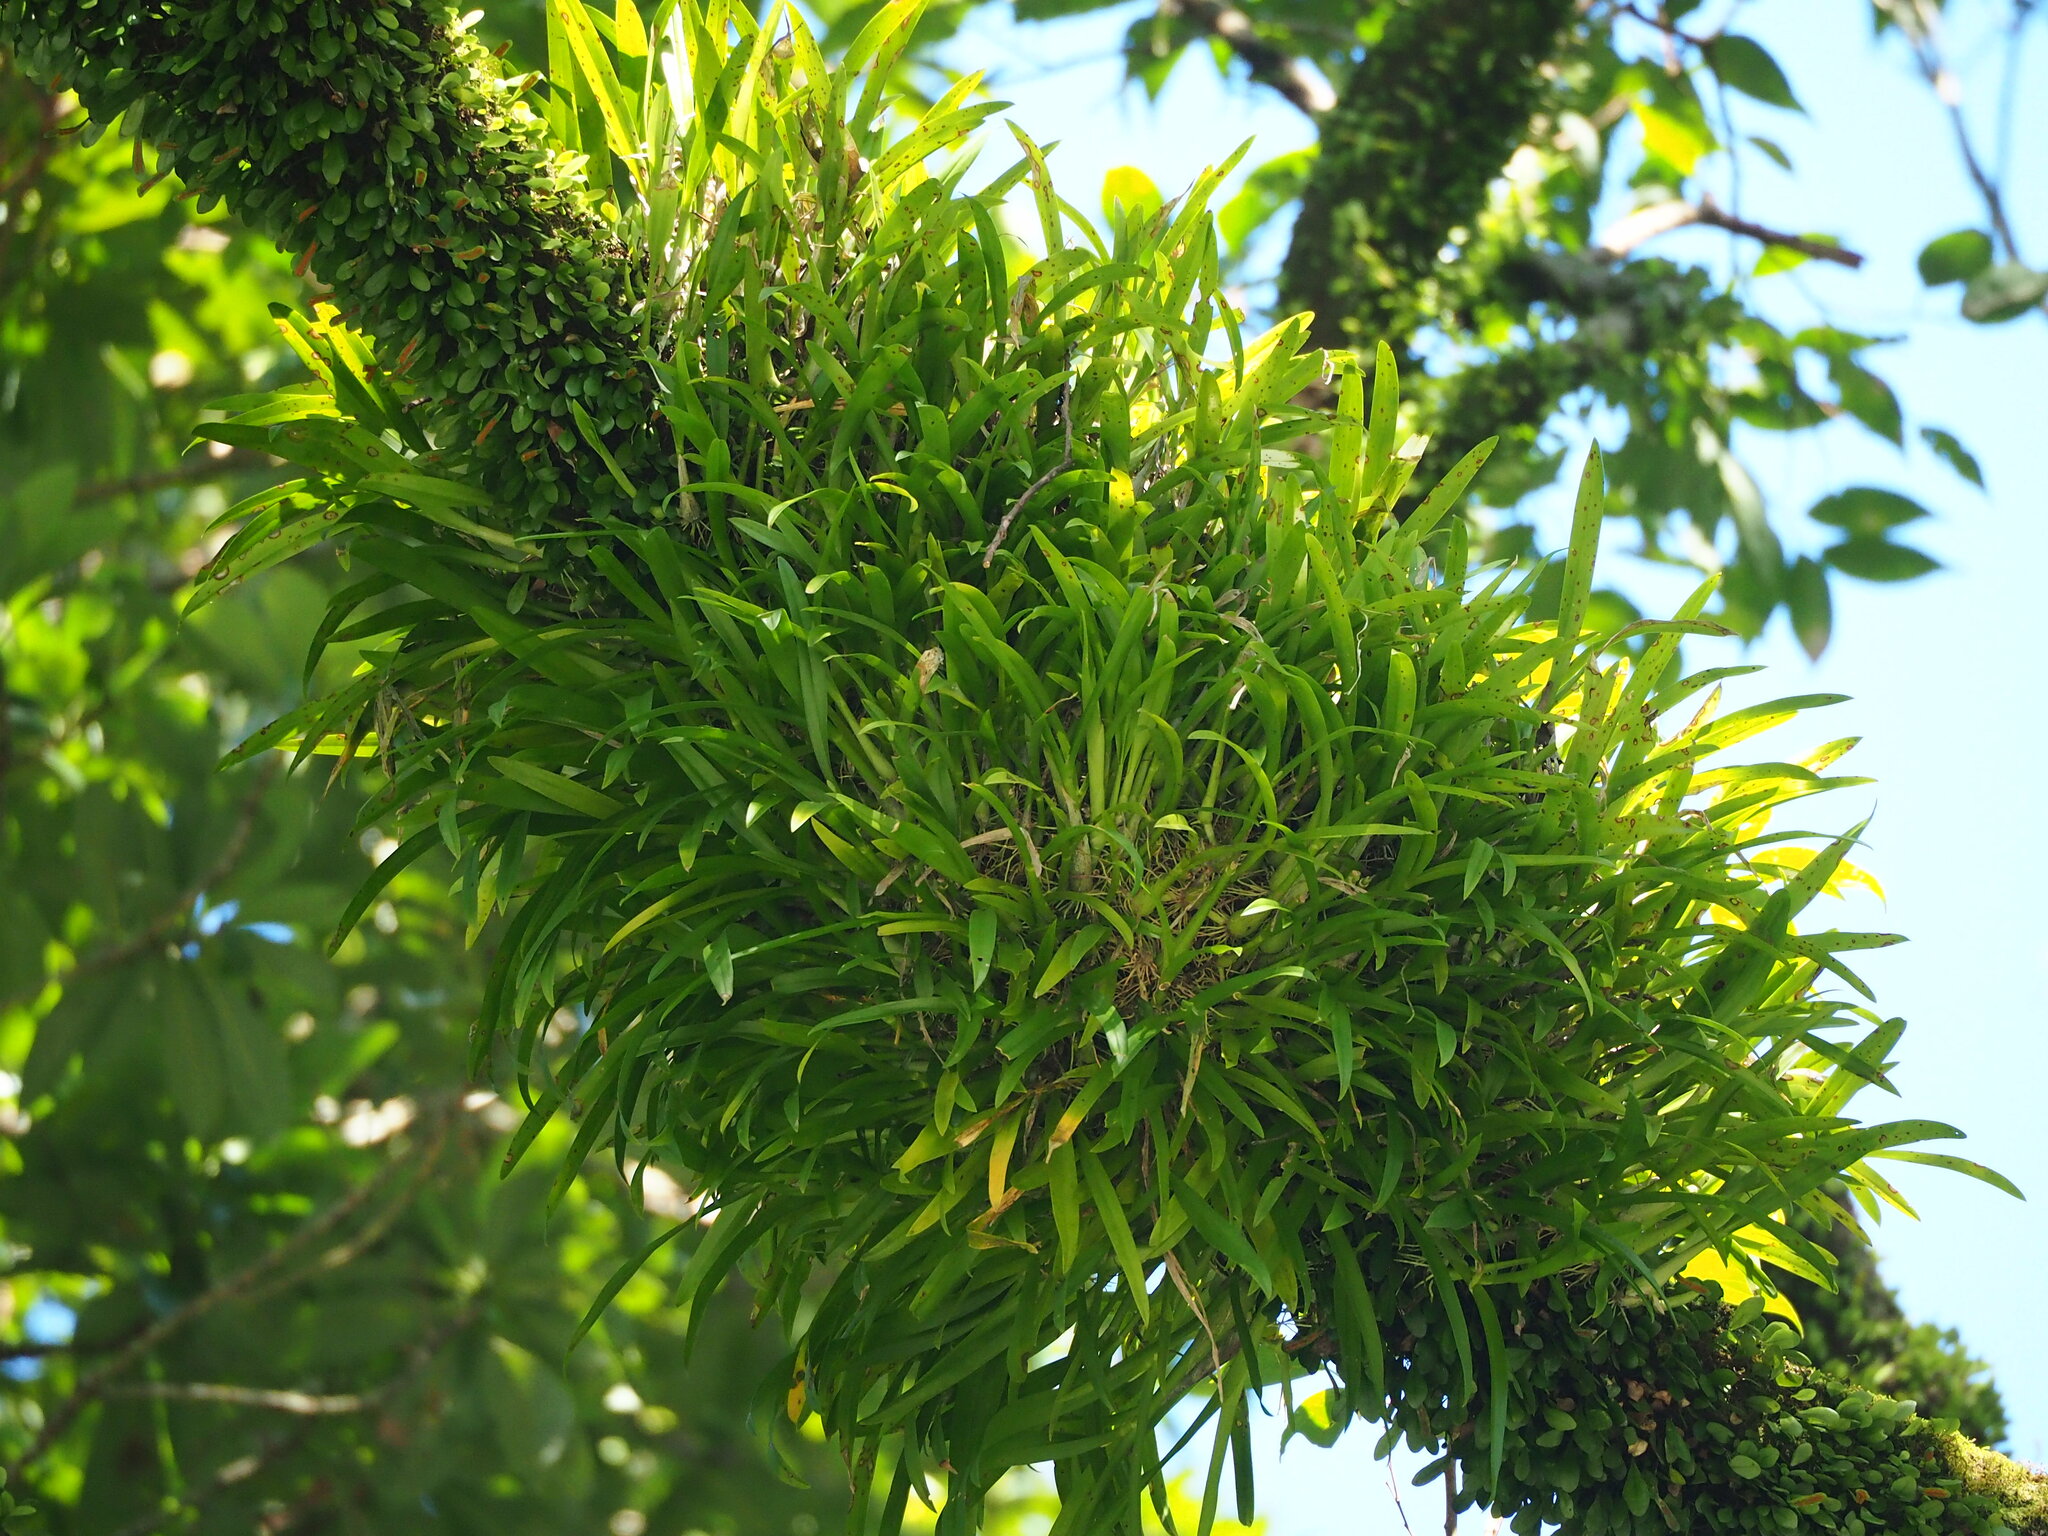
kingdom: Plantae
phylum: Tracheophyta
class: Liliopsida
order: Asparagales
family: Orchidaceae
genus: Liparis
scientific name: Liparis condylobulbon
